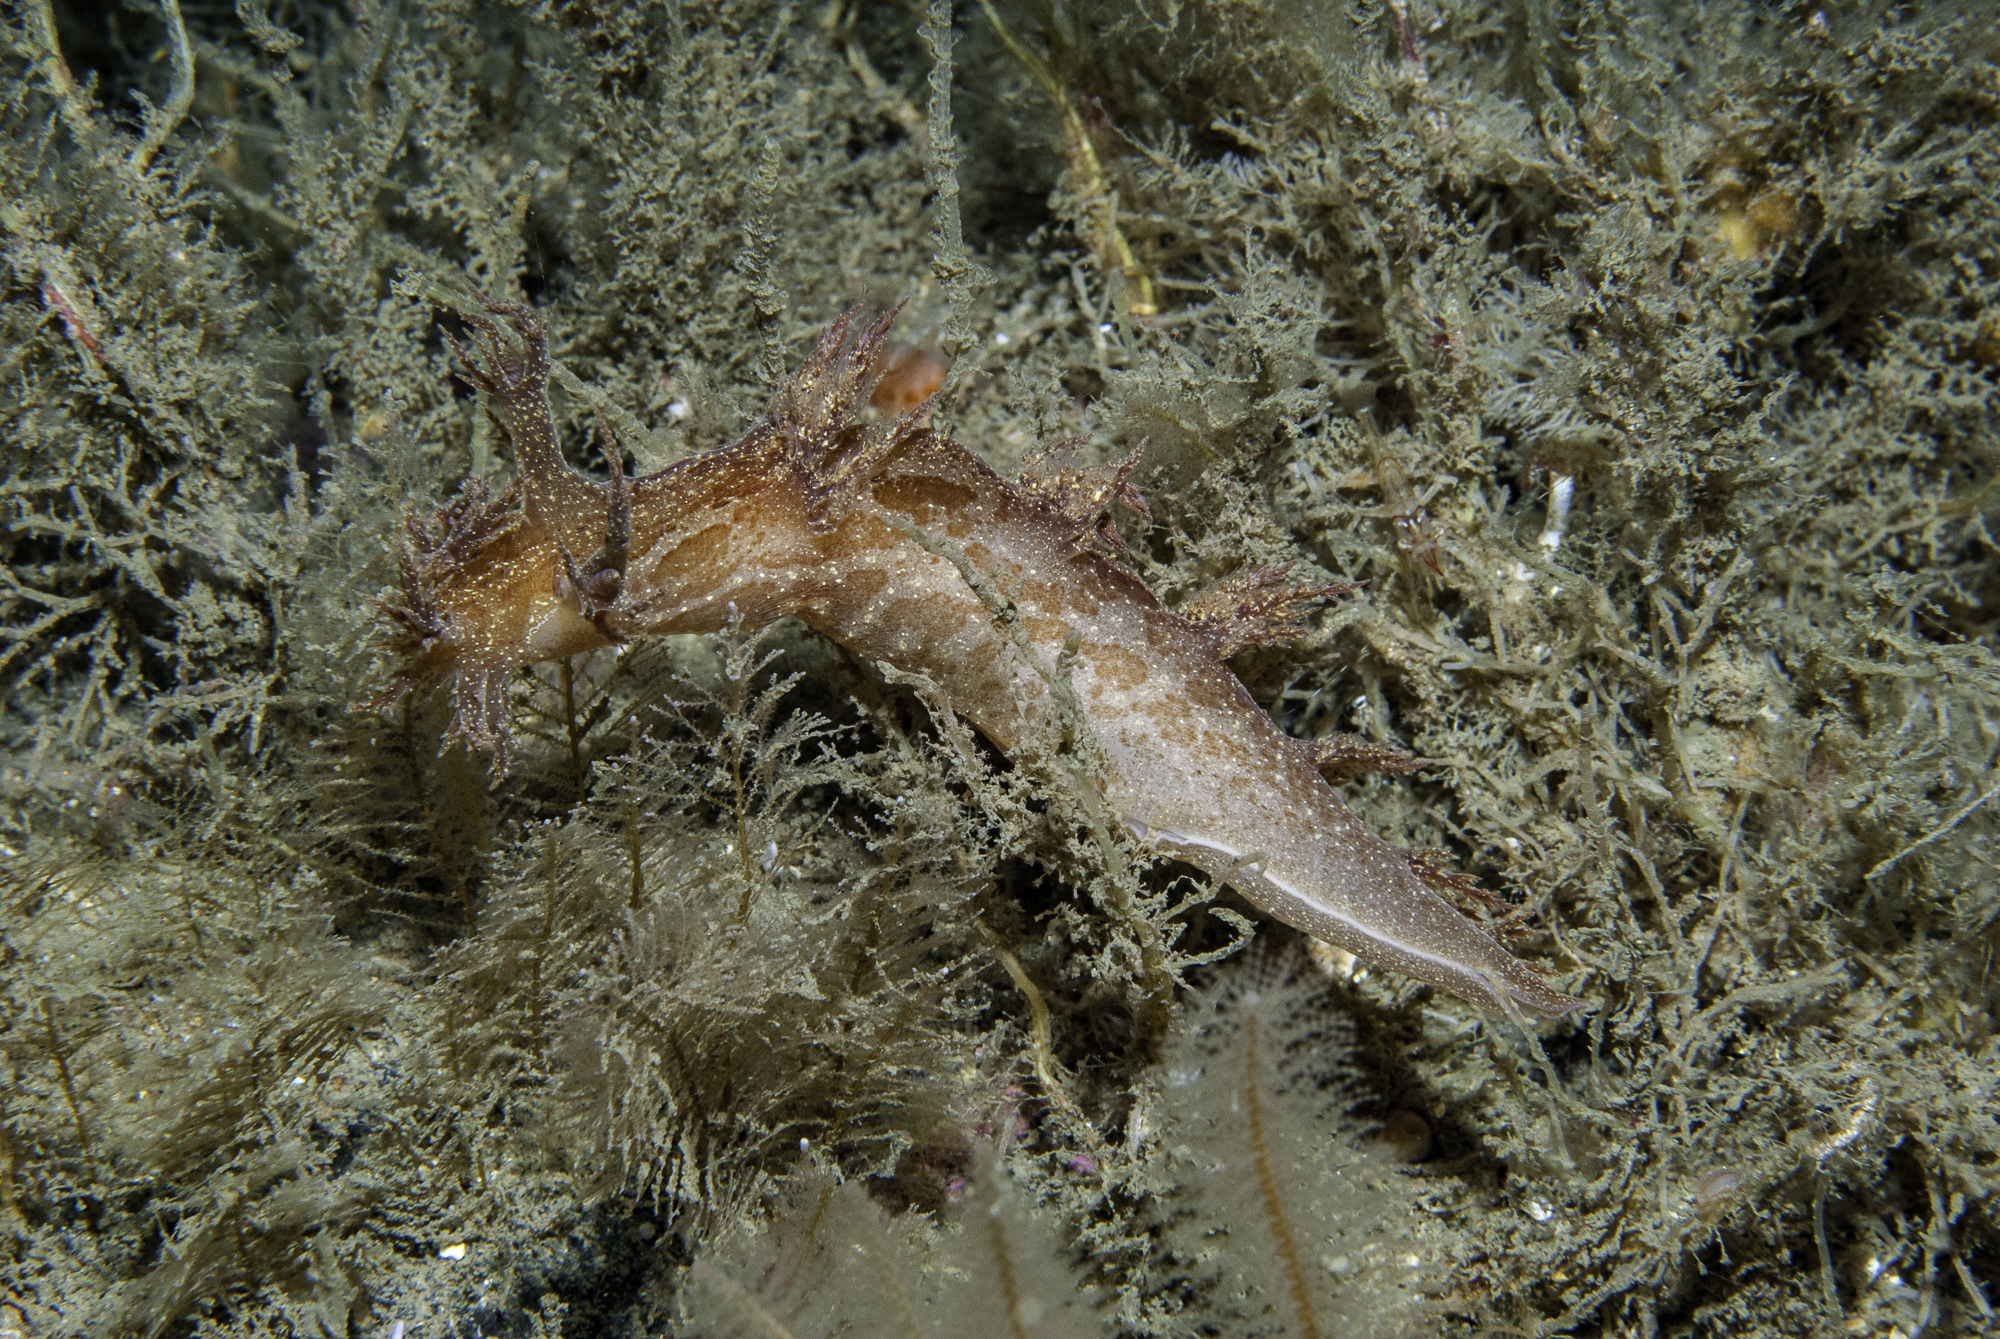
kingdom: Animalia
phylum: Mollusca
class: Gastropoda
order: Nudibranchia
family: Dendronotidae
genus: Dendronotus
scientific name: Dendronotus europaeus
